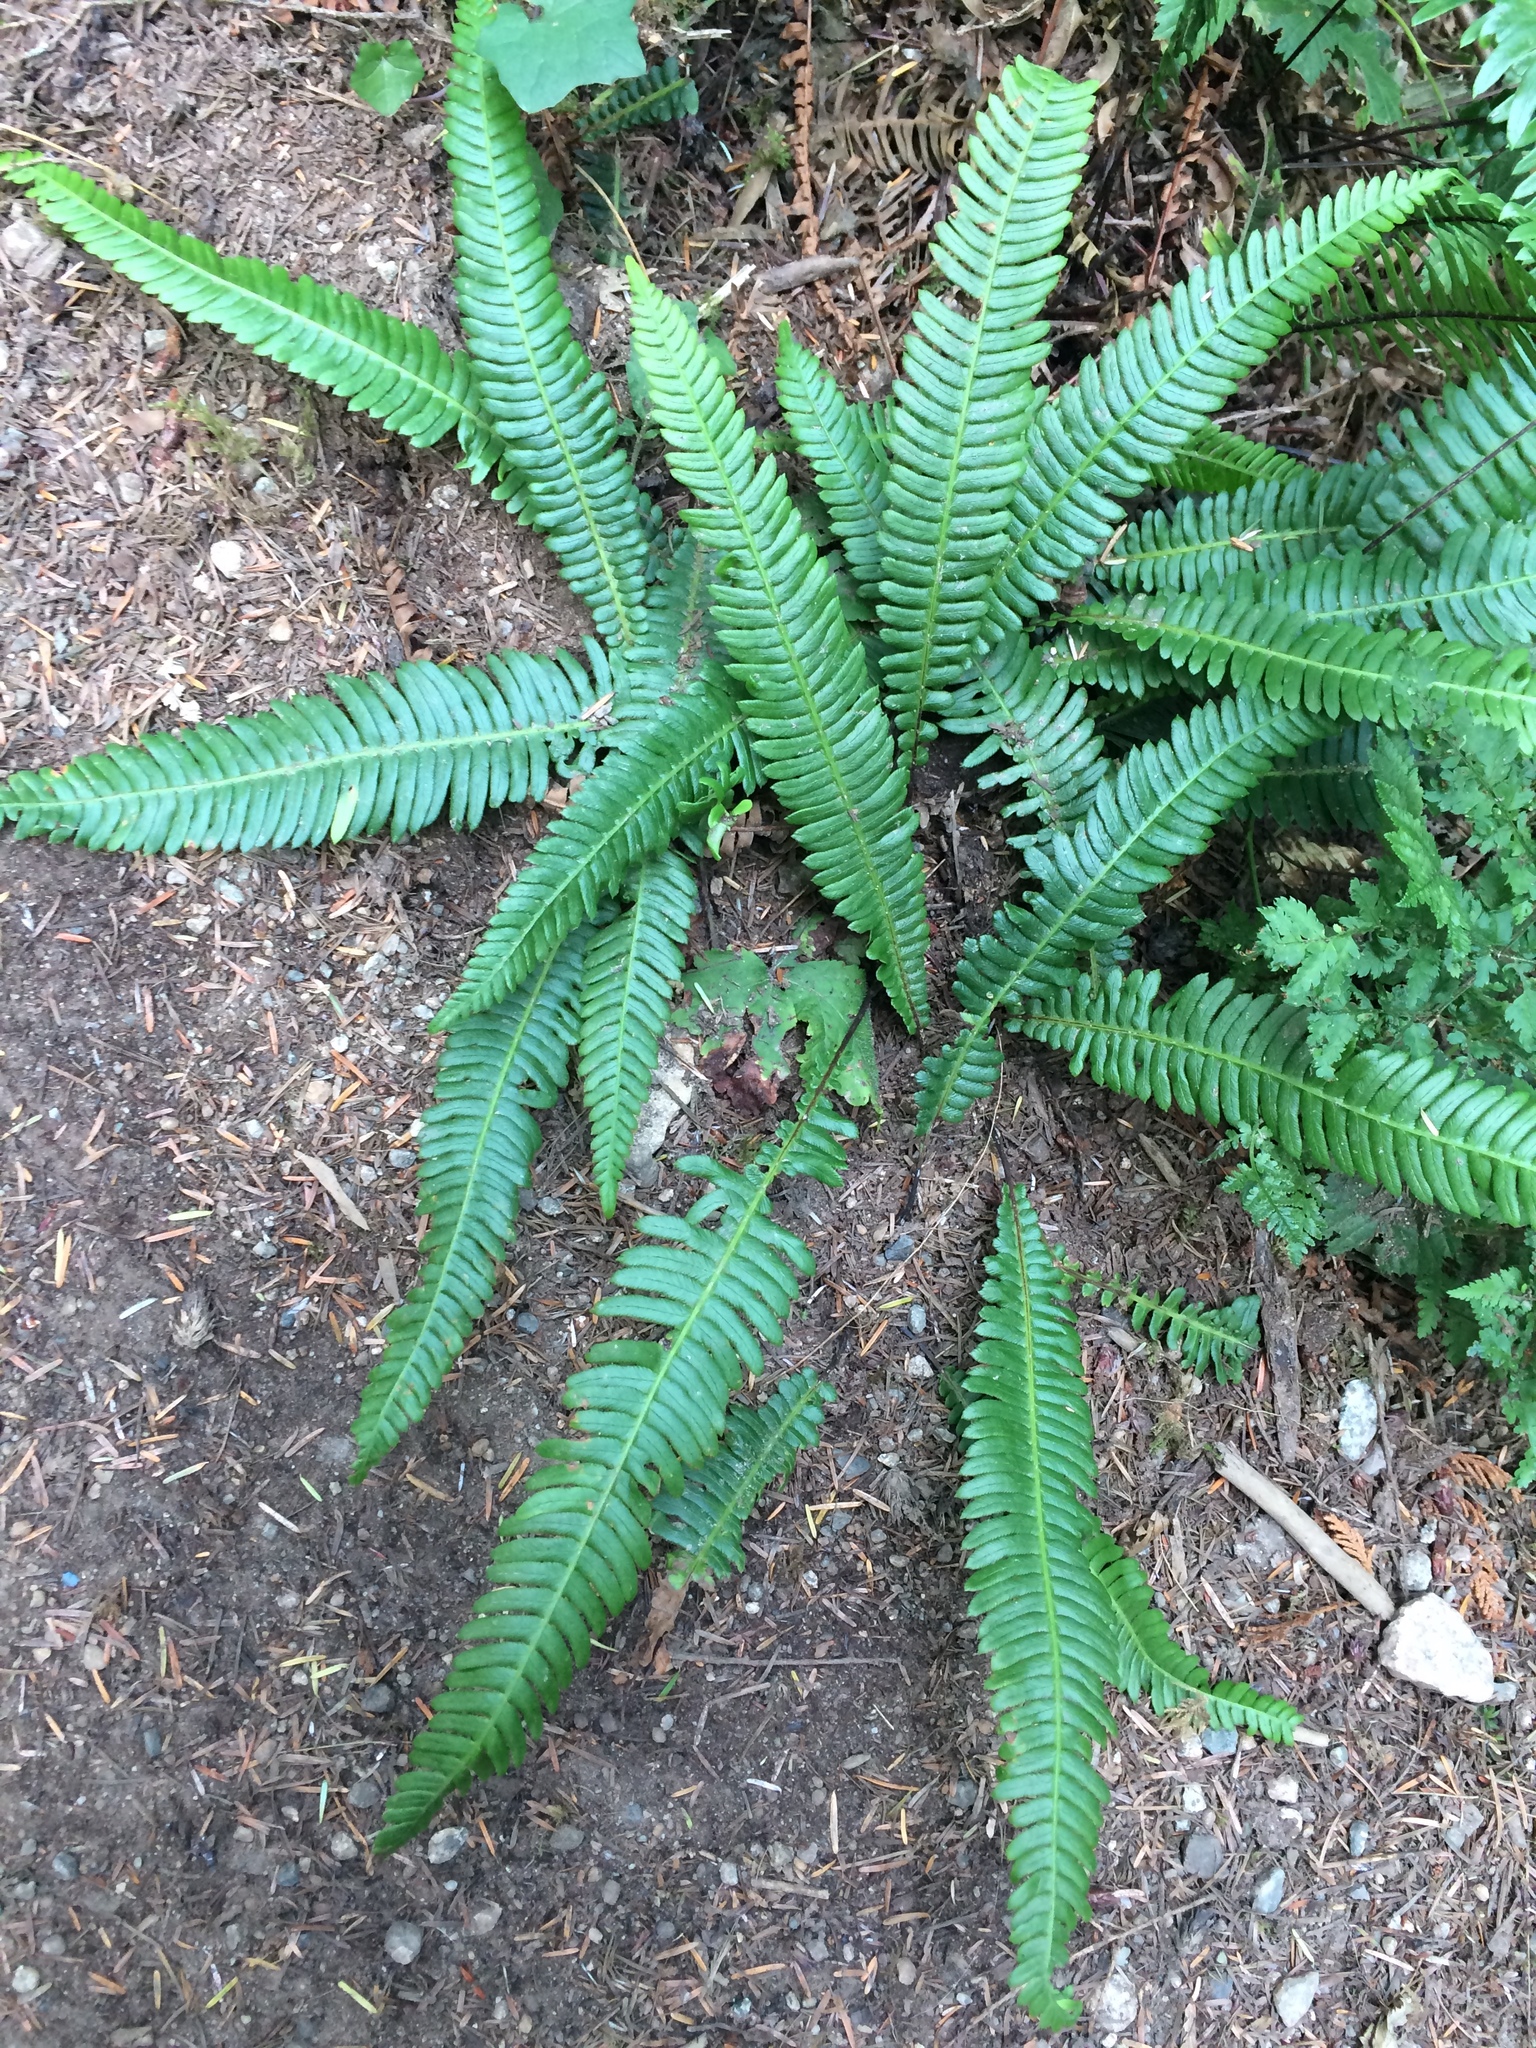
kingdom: Plantae
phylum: Tracheophyta
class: Polypodiopsida
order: Polypodiales
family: Blechnaceae
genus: Struthiopteris
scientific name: Struthiopteris spicant
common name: Deer fern
